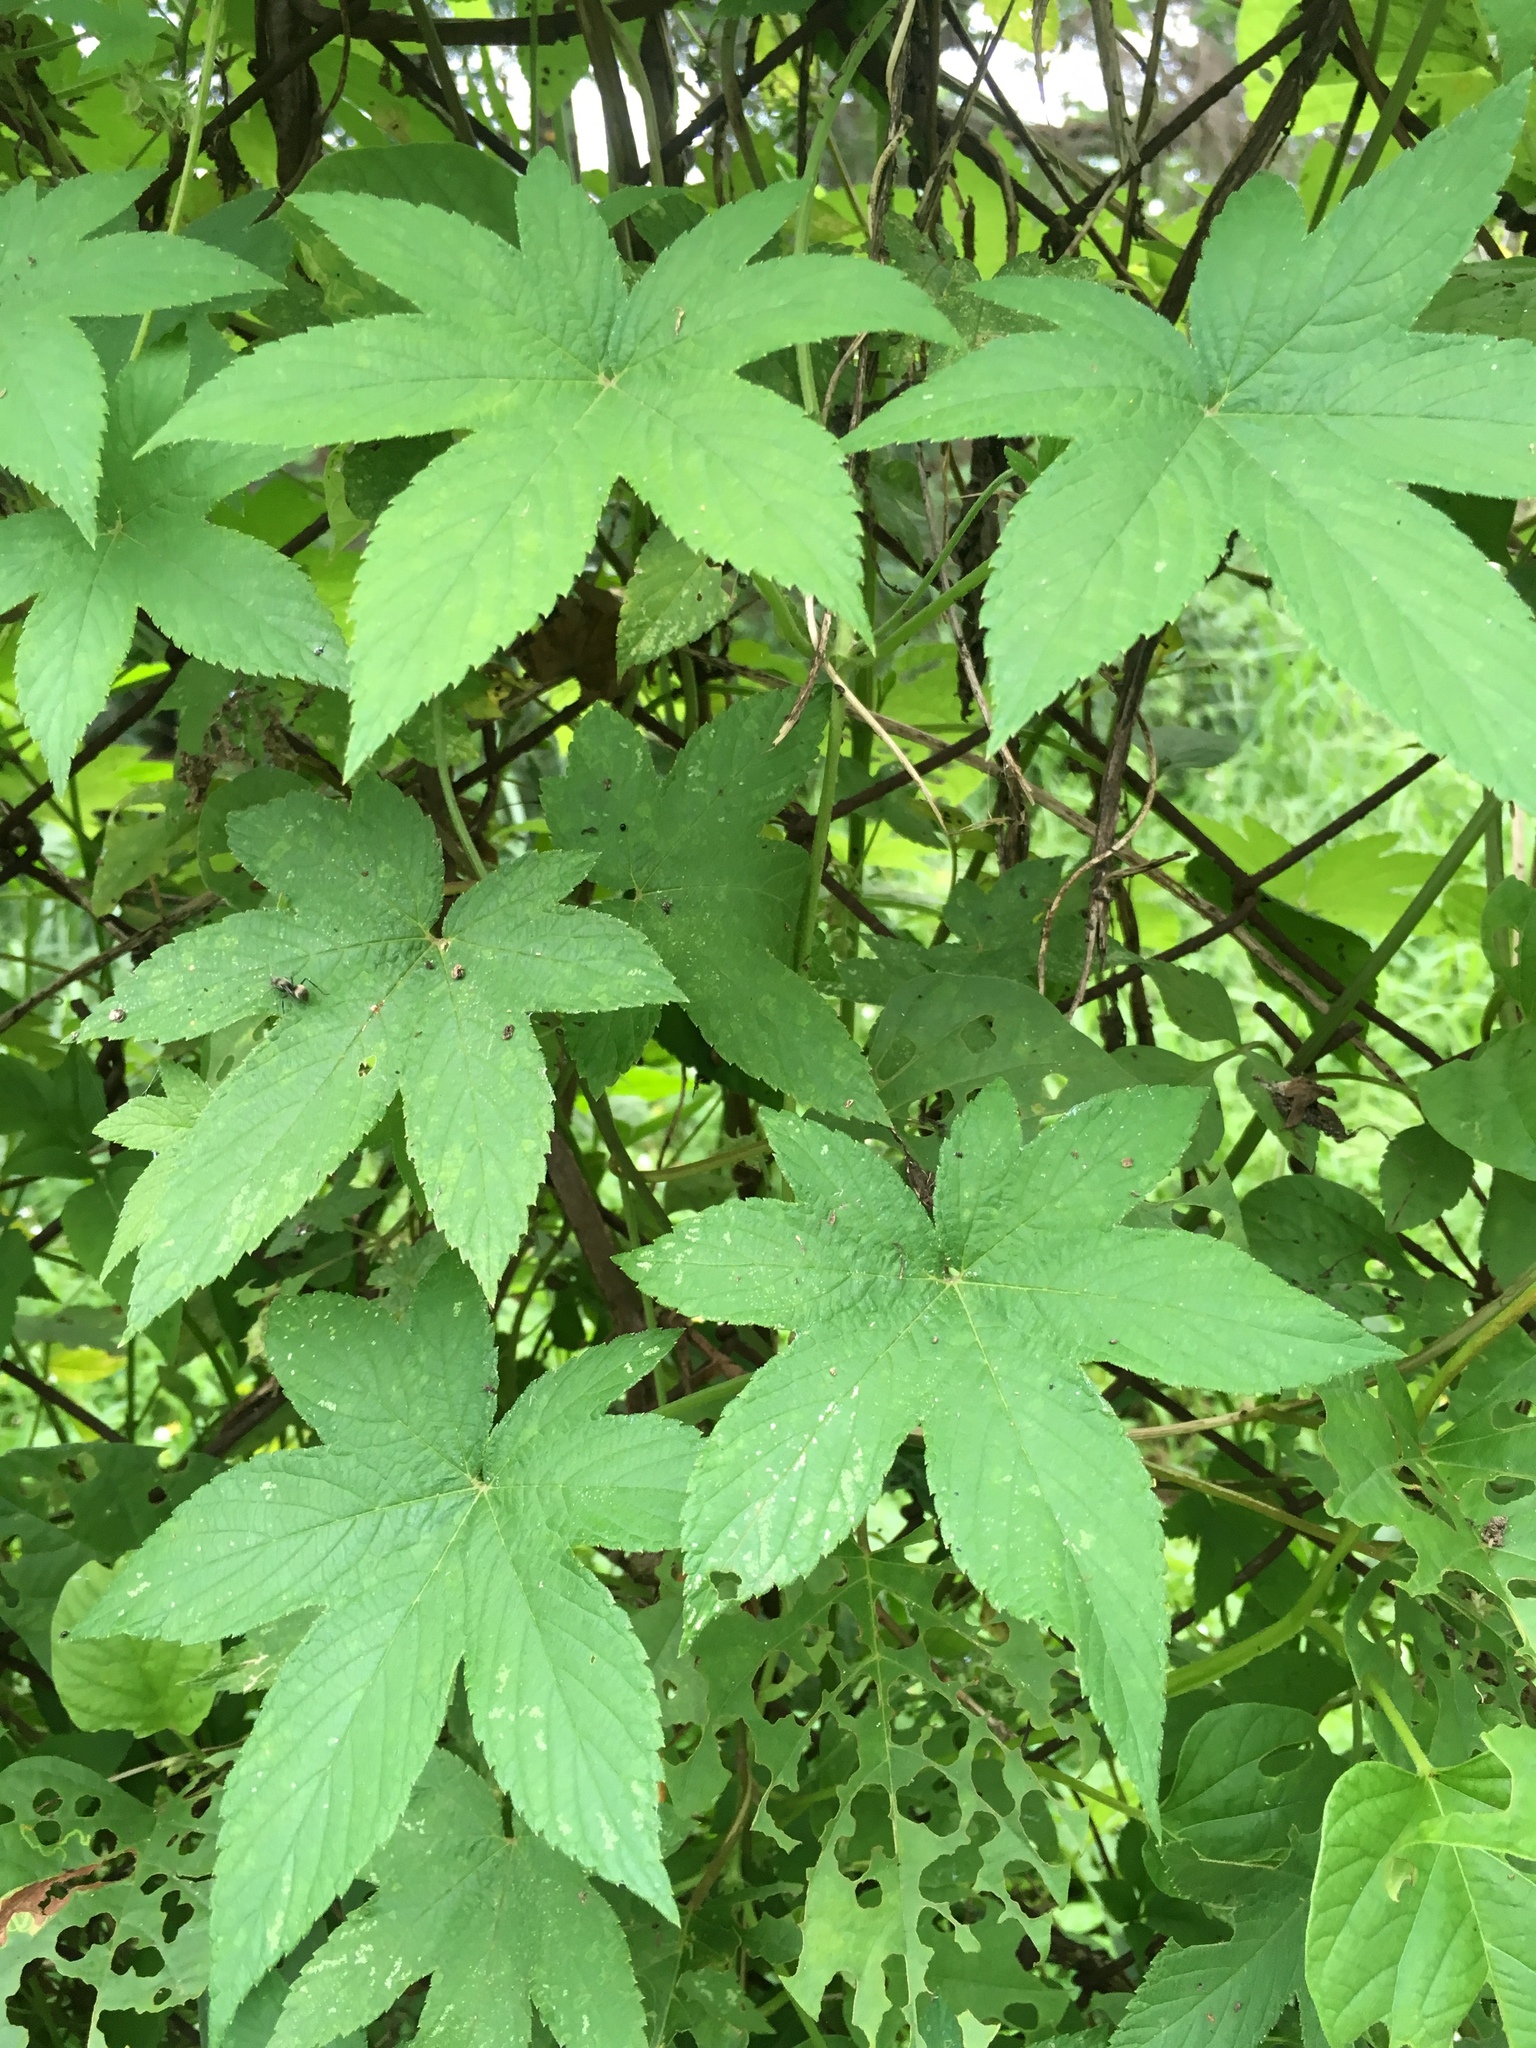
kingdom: Plantae
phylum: Tracheophyta
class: Magnoliopsida
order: Rosales
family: Cannabaceae
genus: Humulus
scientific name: Humulus scandens
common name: Japanese hop
